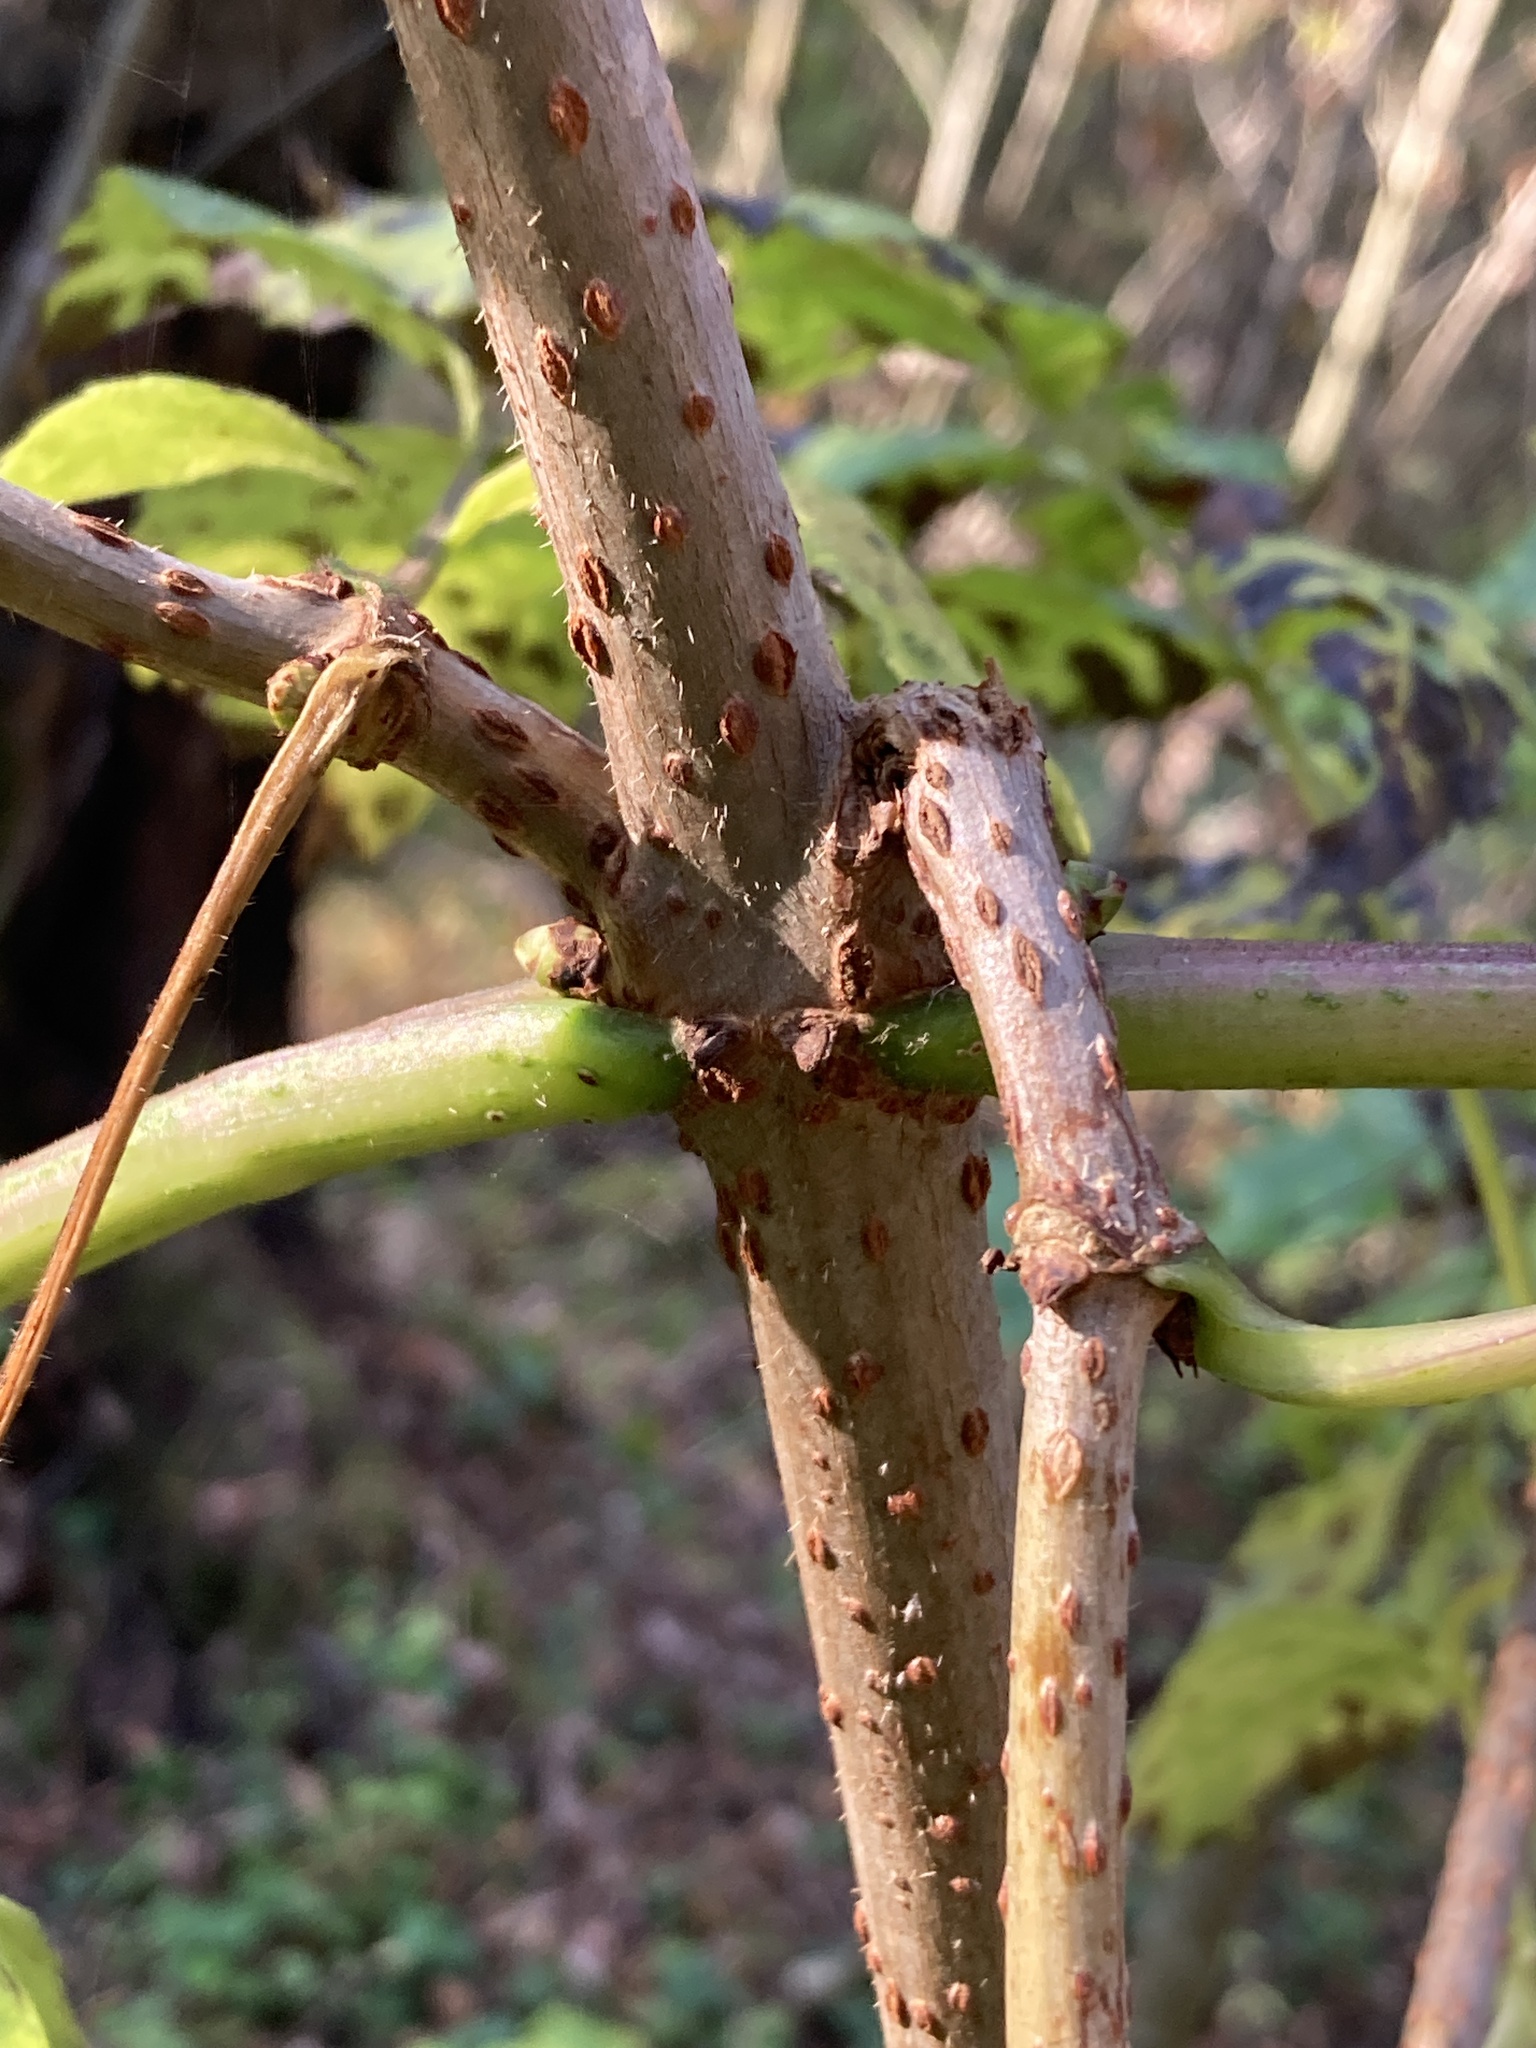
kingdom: Plantae
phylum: Tracheophyta
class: Magnoliopsida
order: Dipsacales
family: Viburnaceae
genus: Sambucus
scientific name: Sambucus racemosa
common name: Red-berried elder
